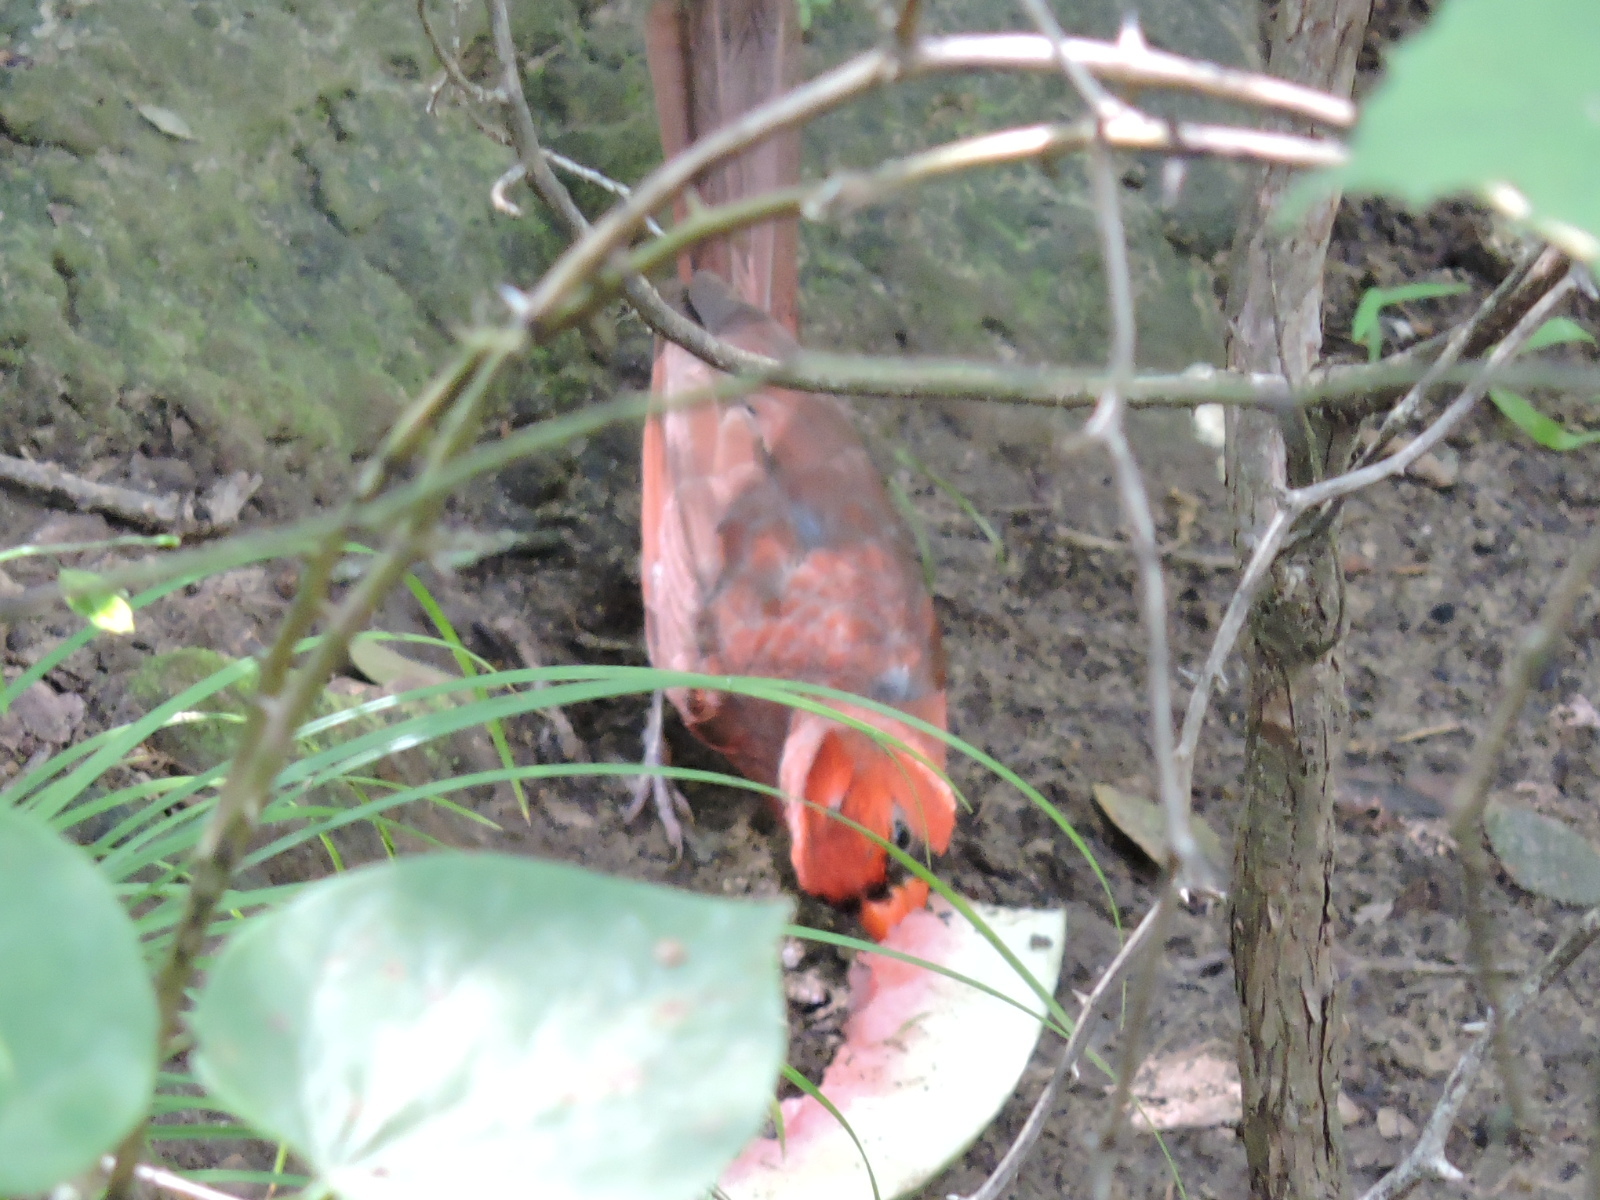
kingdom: Animalia
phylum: Chordata
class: Aves
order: Passeriformes
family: Cardinalidae
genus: Cardinalis
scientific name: Cardinalis cardinalis
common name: Northern cardinal
